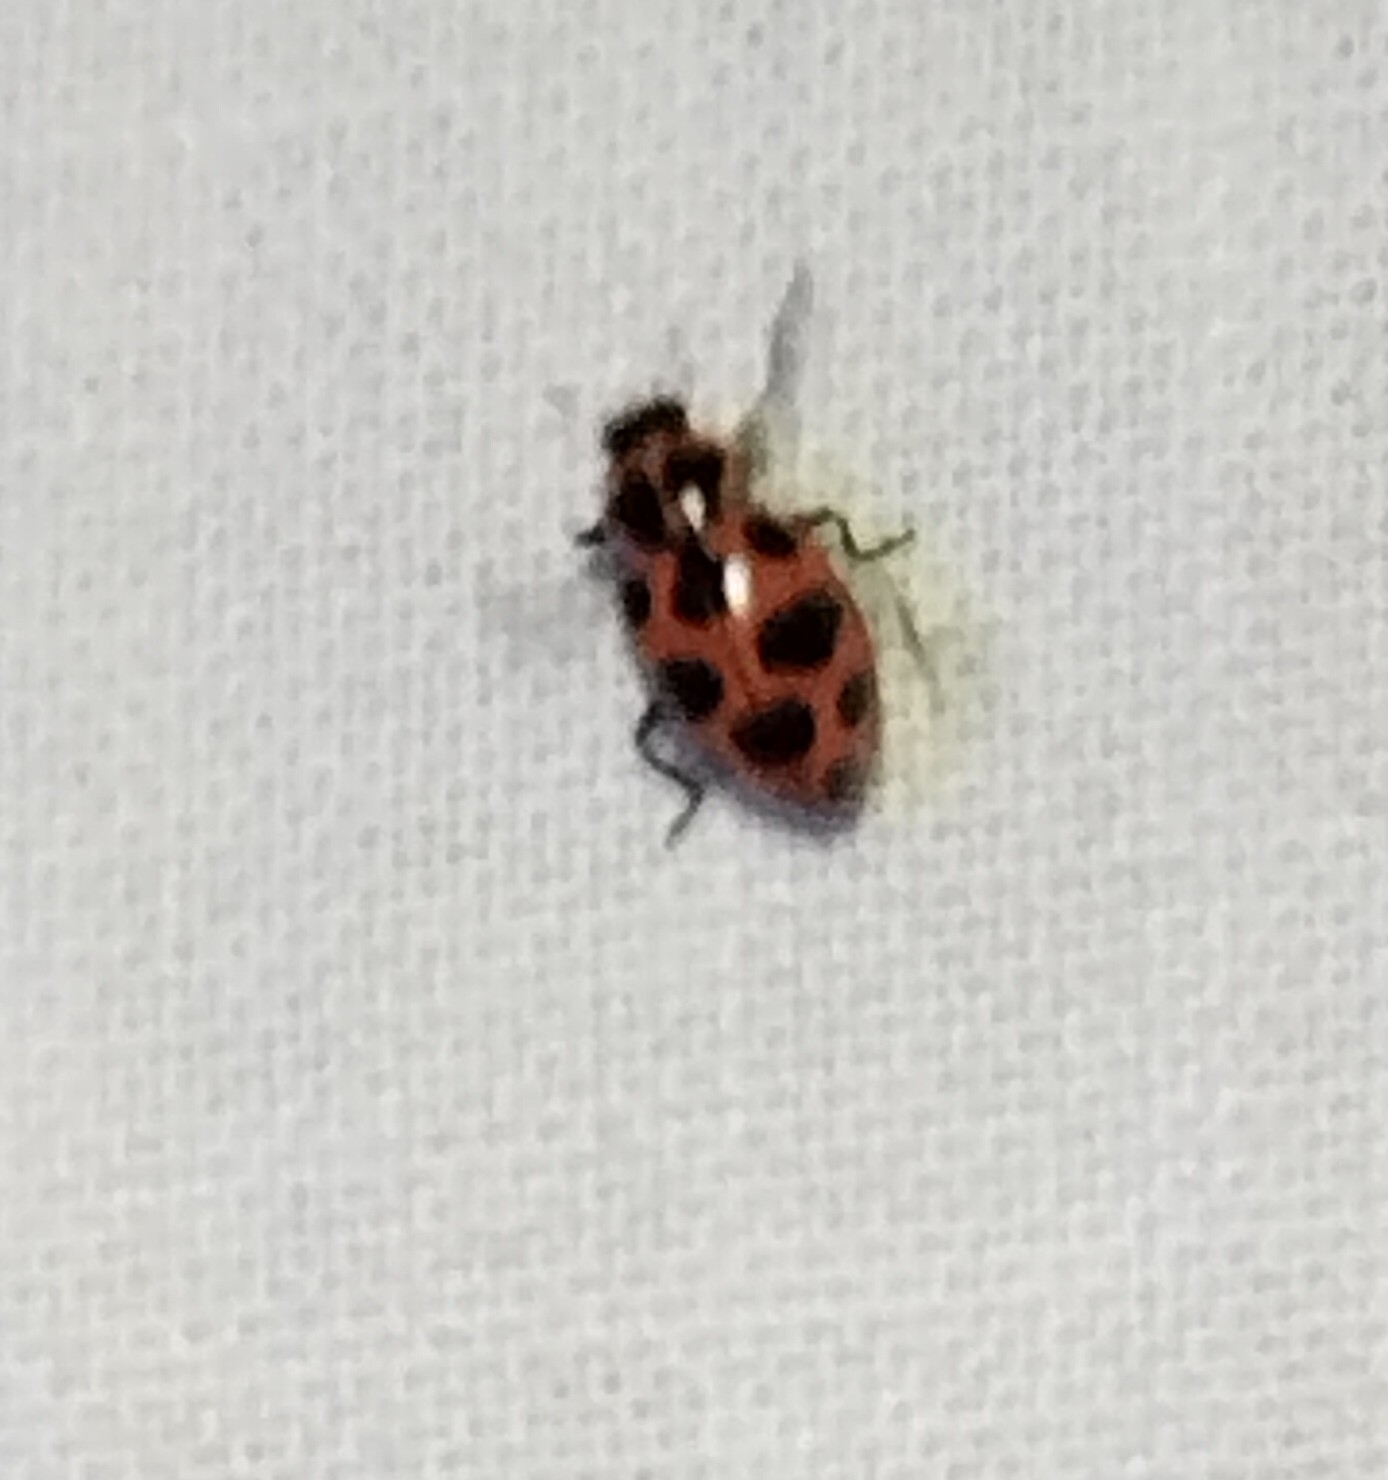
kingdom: Animalia
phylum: Arthropoda
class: Insecta
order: Coleoptera
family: Coccinellidae
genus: Coleomegilla
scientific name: Coleomegilla maculata
